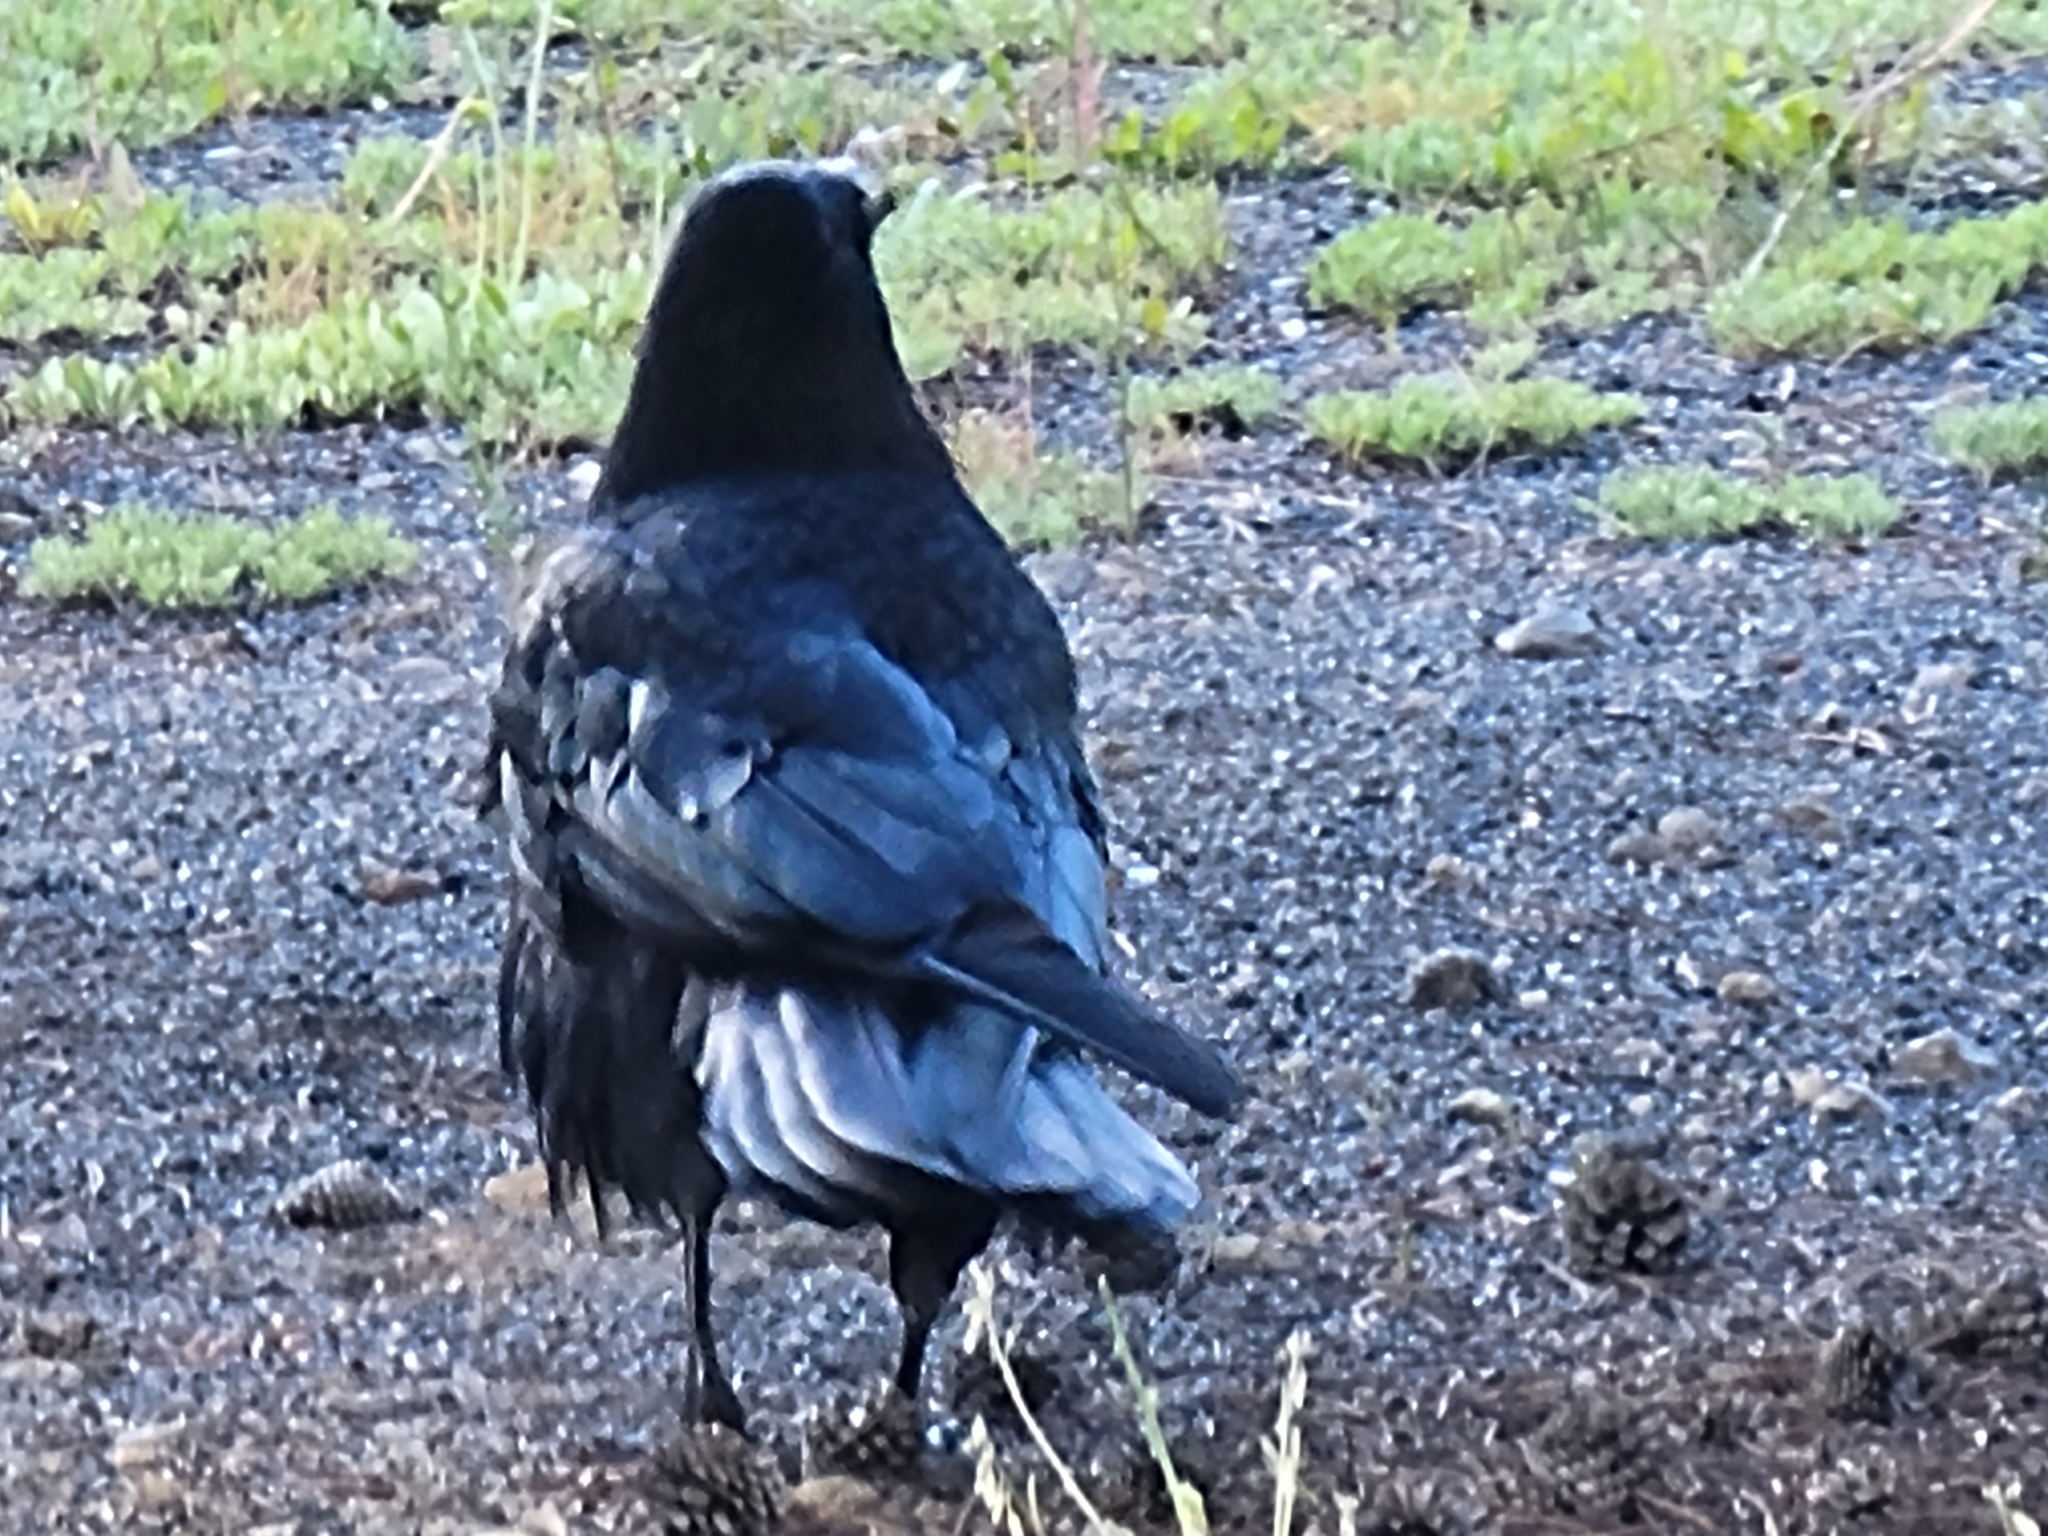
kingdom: Animalia
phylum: Chordata
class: Aves
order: Passeriformes
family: Corvidae
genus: Corvus
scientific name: Corvus corax
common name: Common raven
